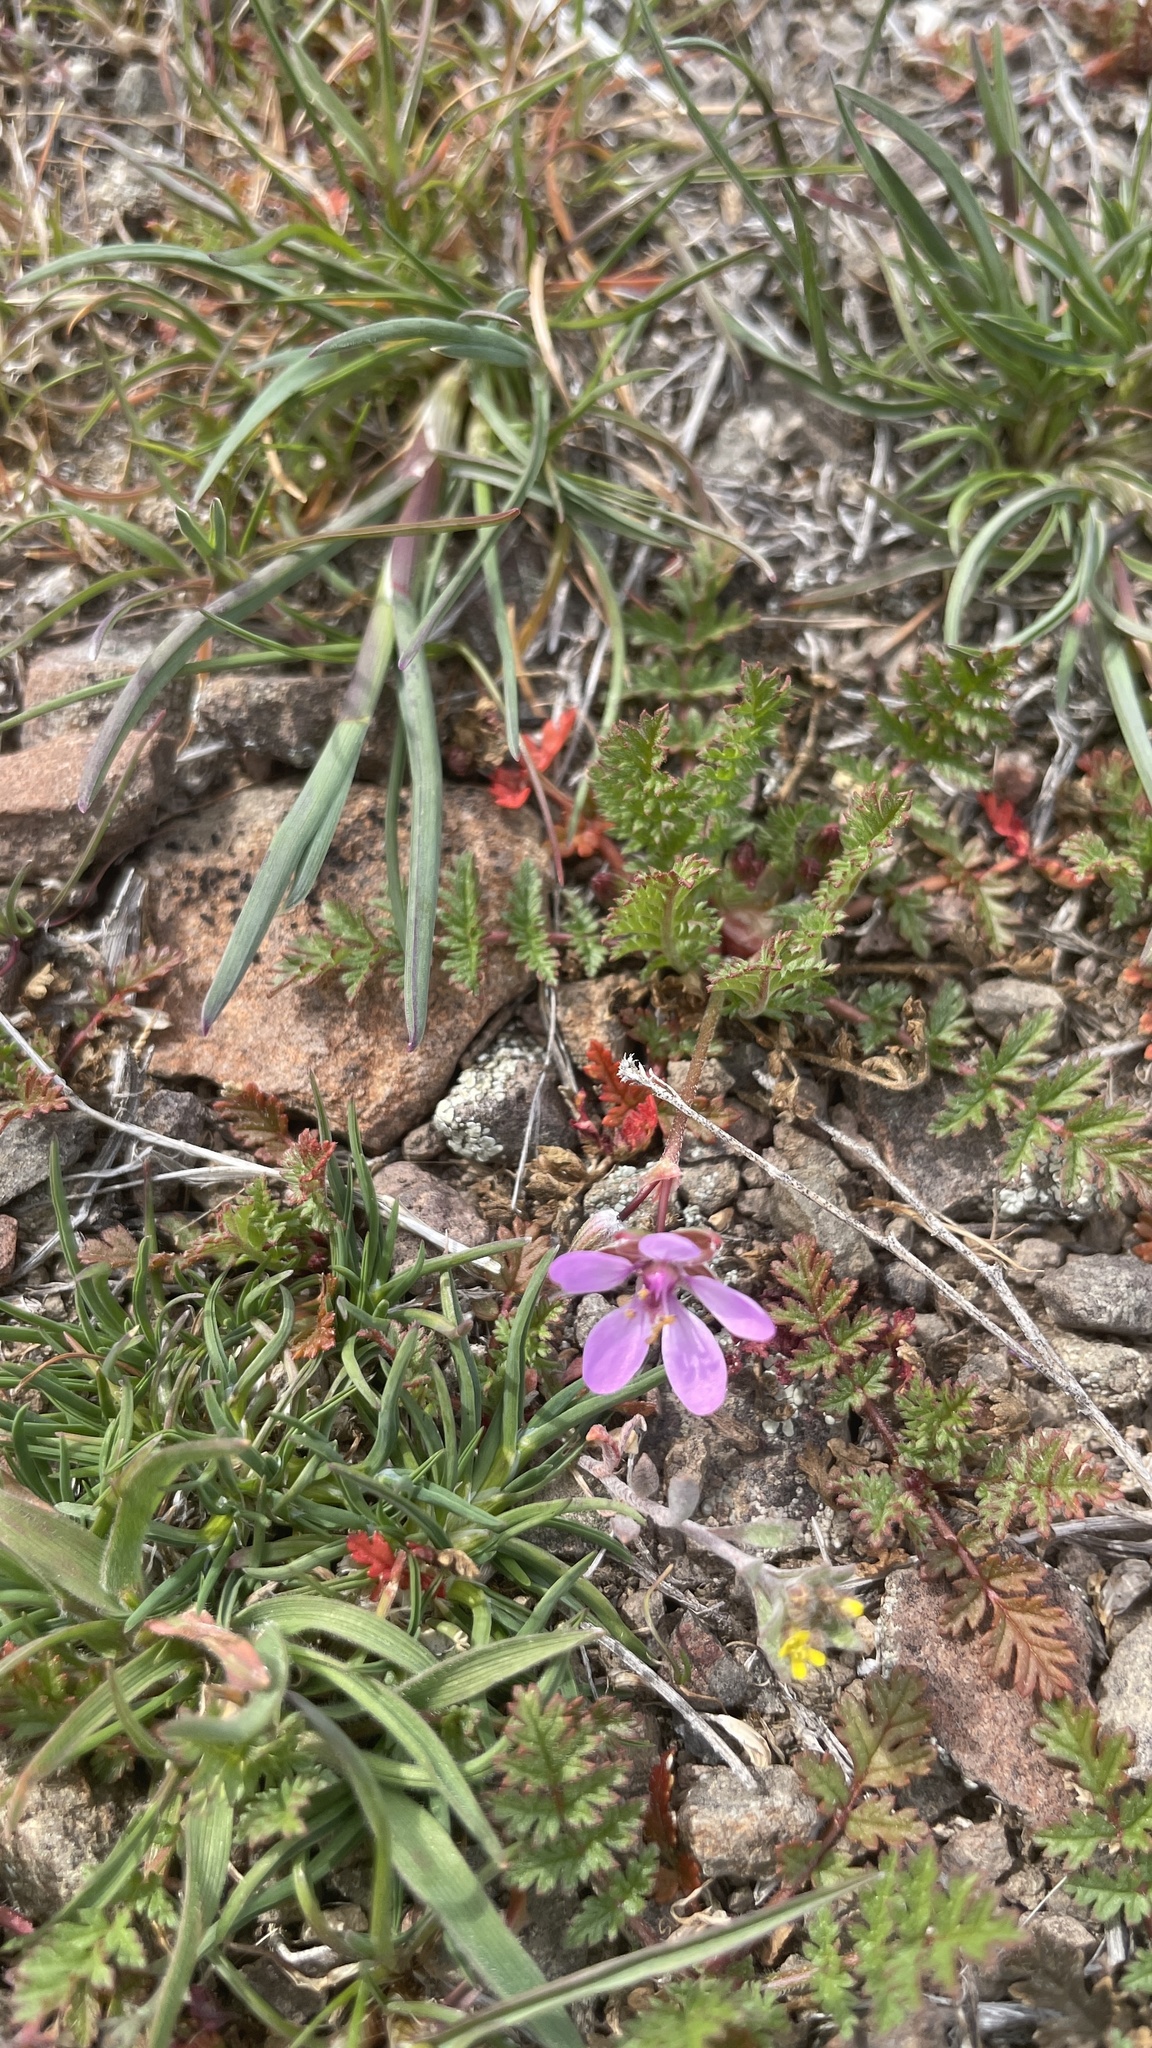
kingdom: Plantae
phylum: Tracheophyta
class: Magnoliopsida
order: Geraniales
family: Geraniaceae
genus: Erodium
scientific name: Erodium cicutarium
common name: Common stork's-bill
